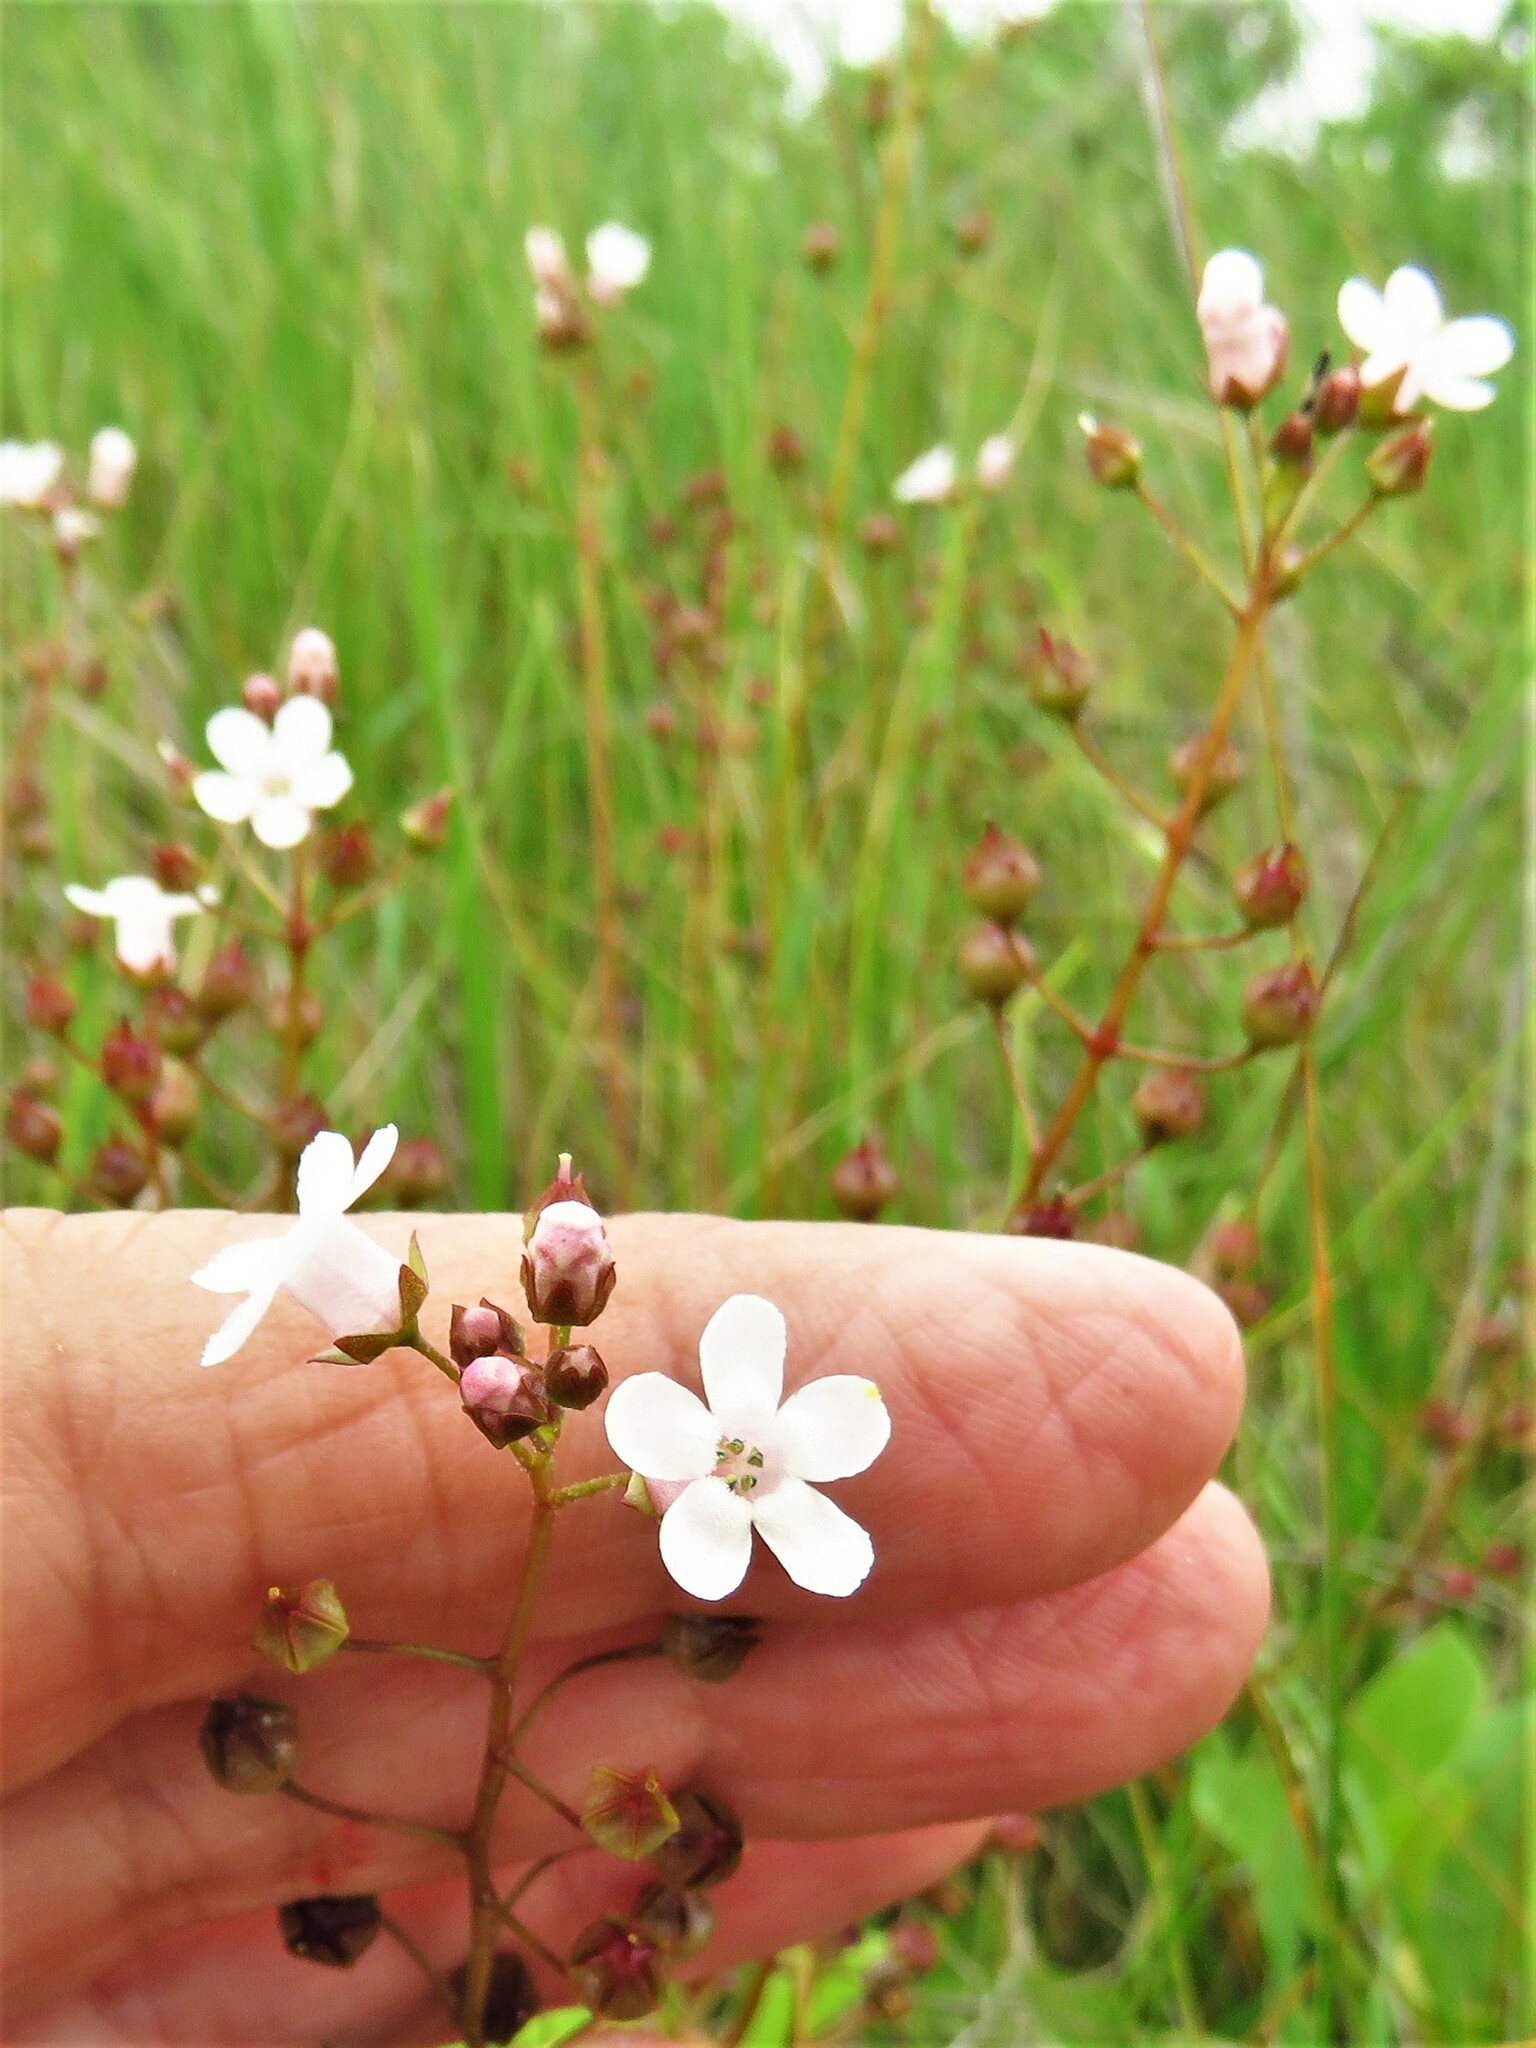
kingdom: Plantae
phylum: Tracheophyta
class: Magnoliopsida
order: Ericales
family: Primulaceae
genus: Samolus
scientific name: Samolus ebracteatus
